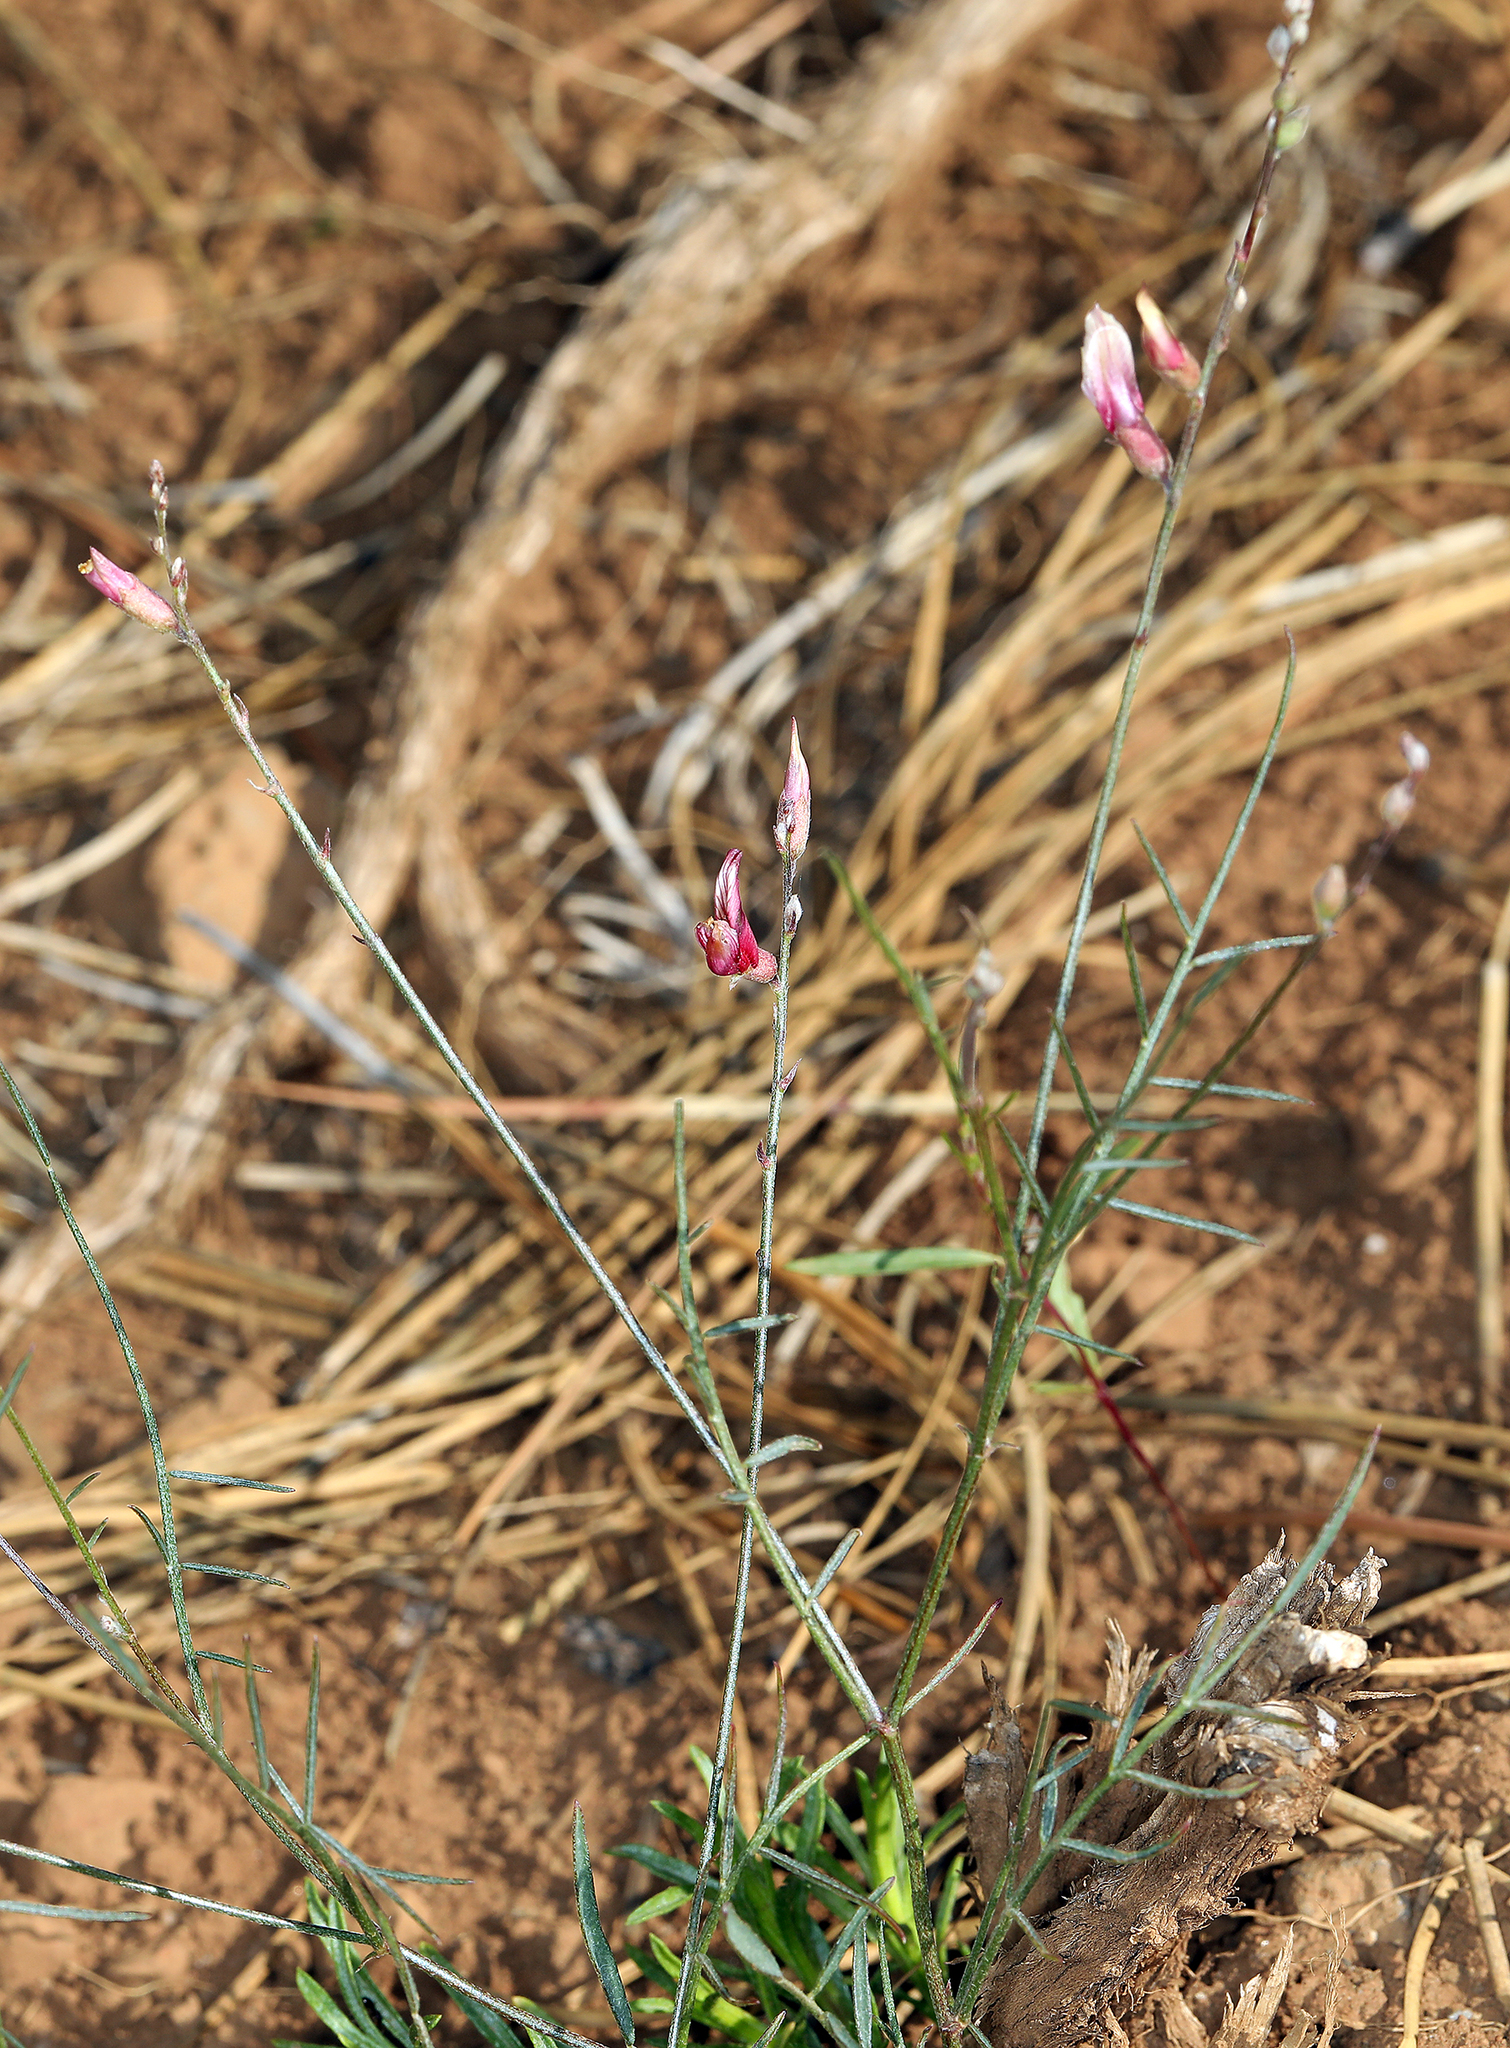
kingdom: Plantae
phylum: Tracheophyta
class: Magnoliopsida
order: Fabales
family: Fabaceae
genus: Astragalus
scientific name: Astragalus inversus
